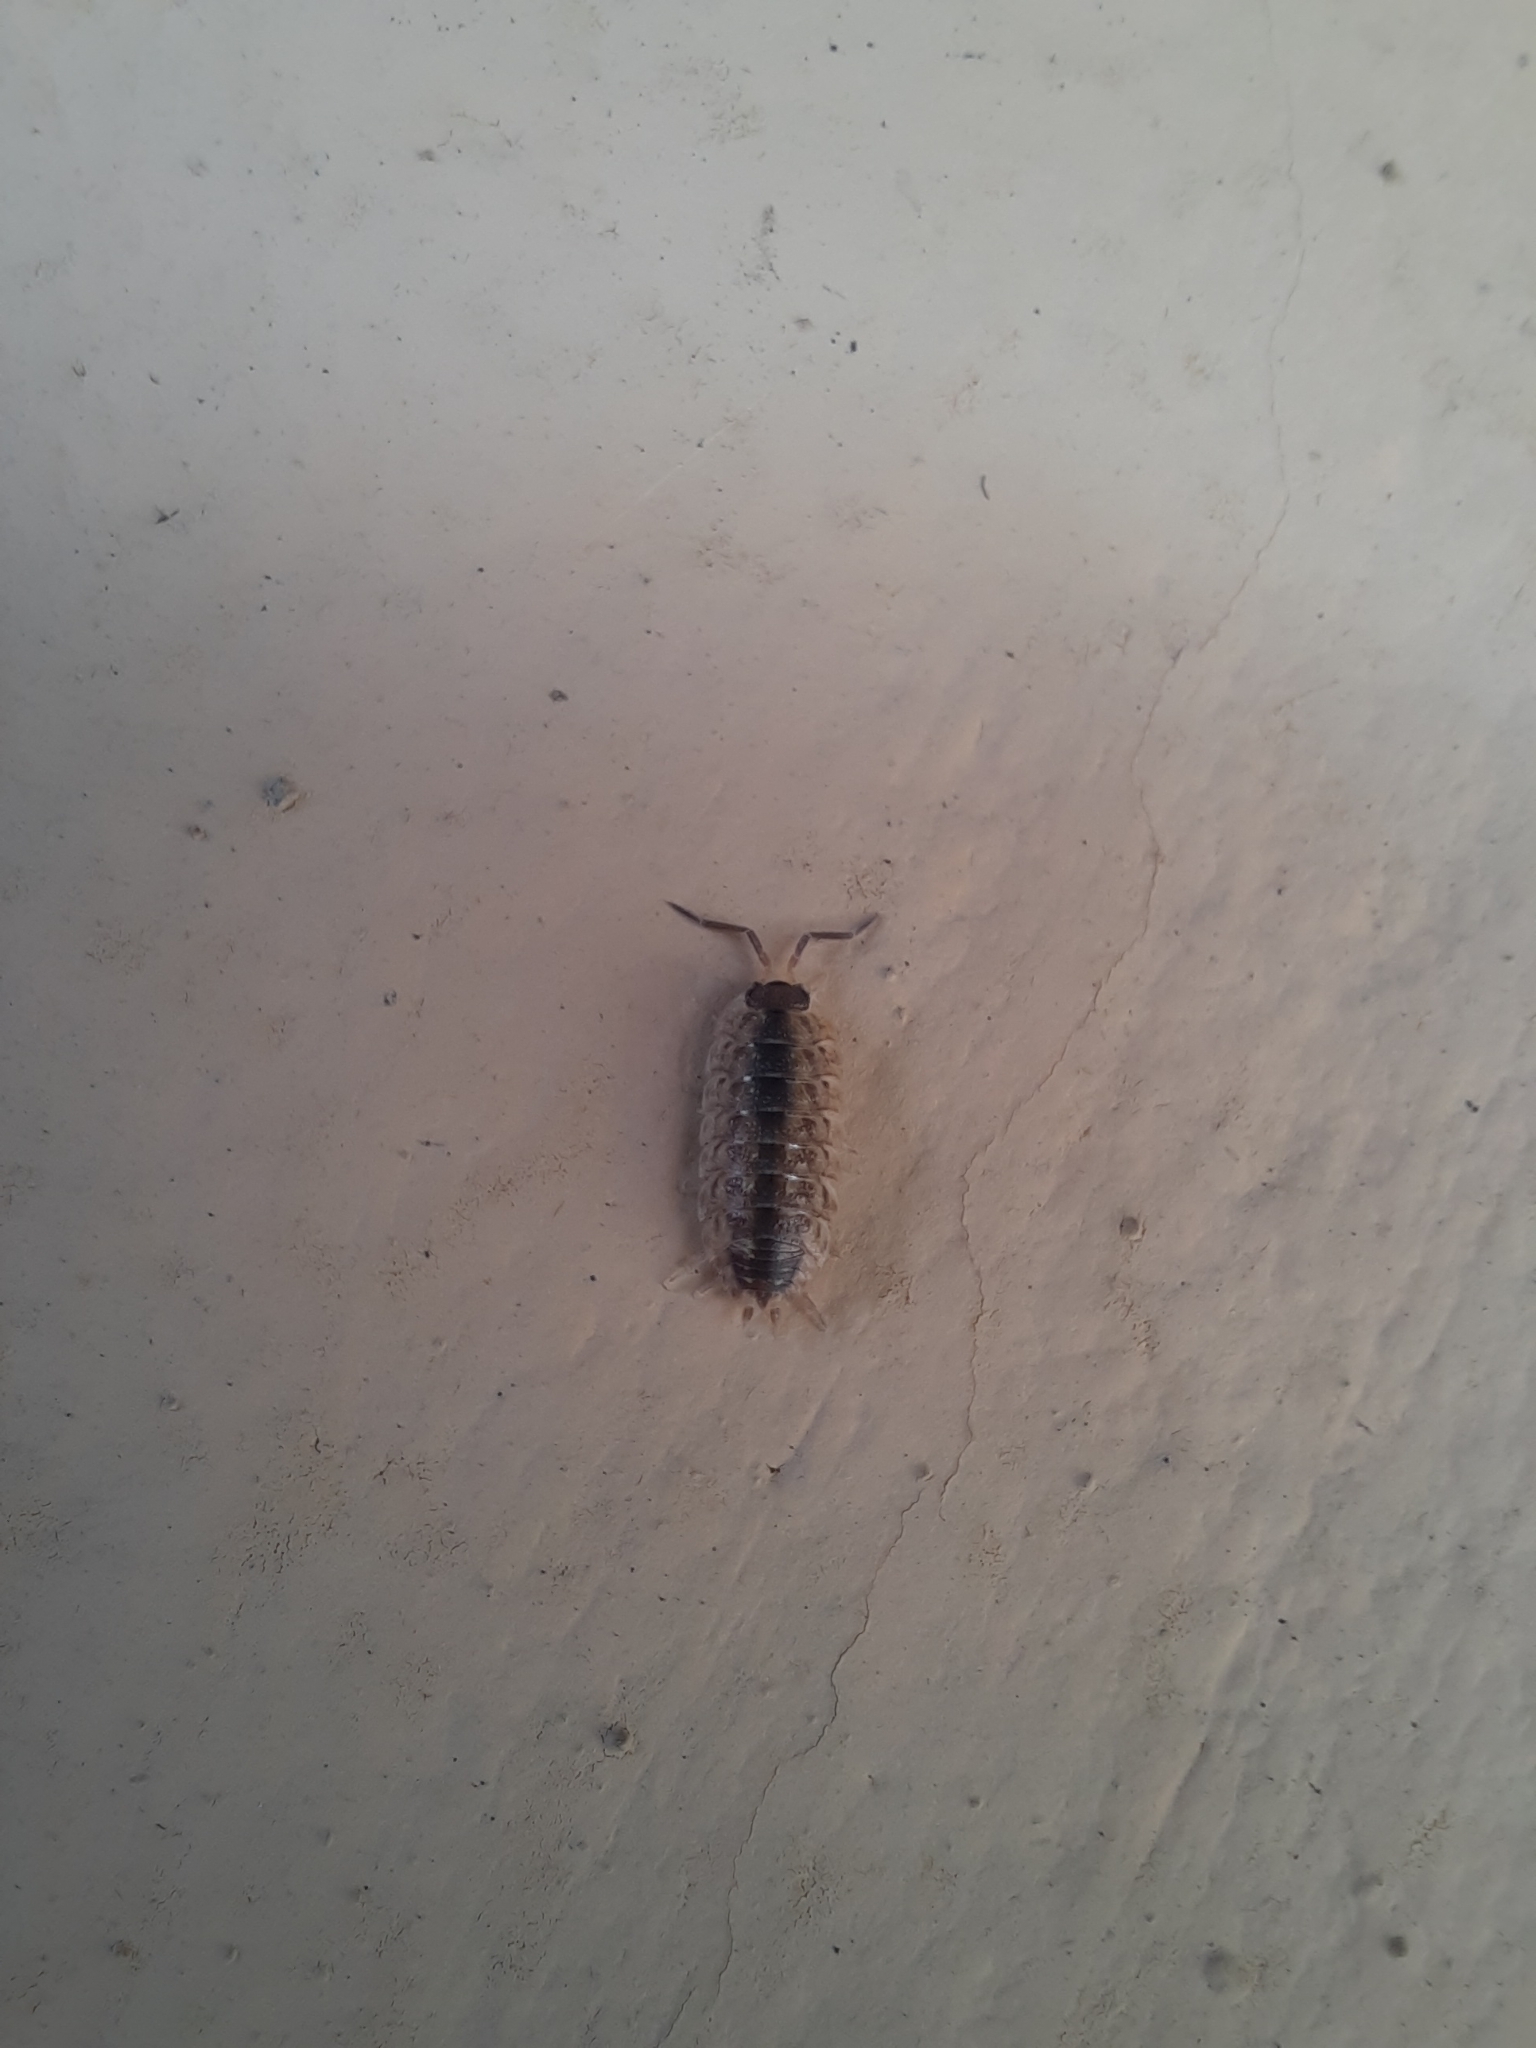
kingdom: Animalia
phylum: Arthropoda
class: Malacostraca
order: Isopoda
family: Porcellionidae
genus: Porcellio
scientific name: Porcellio spinicornis
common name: Painted woodlouse
